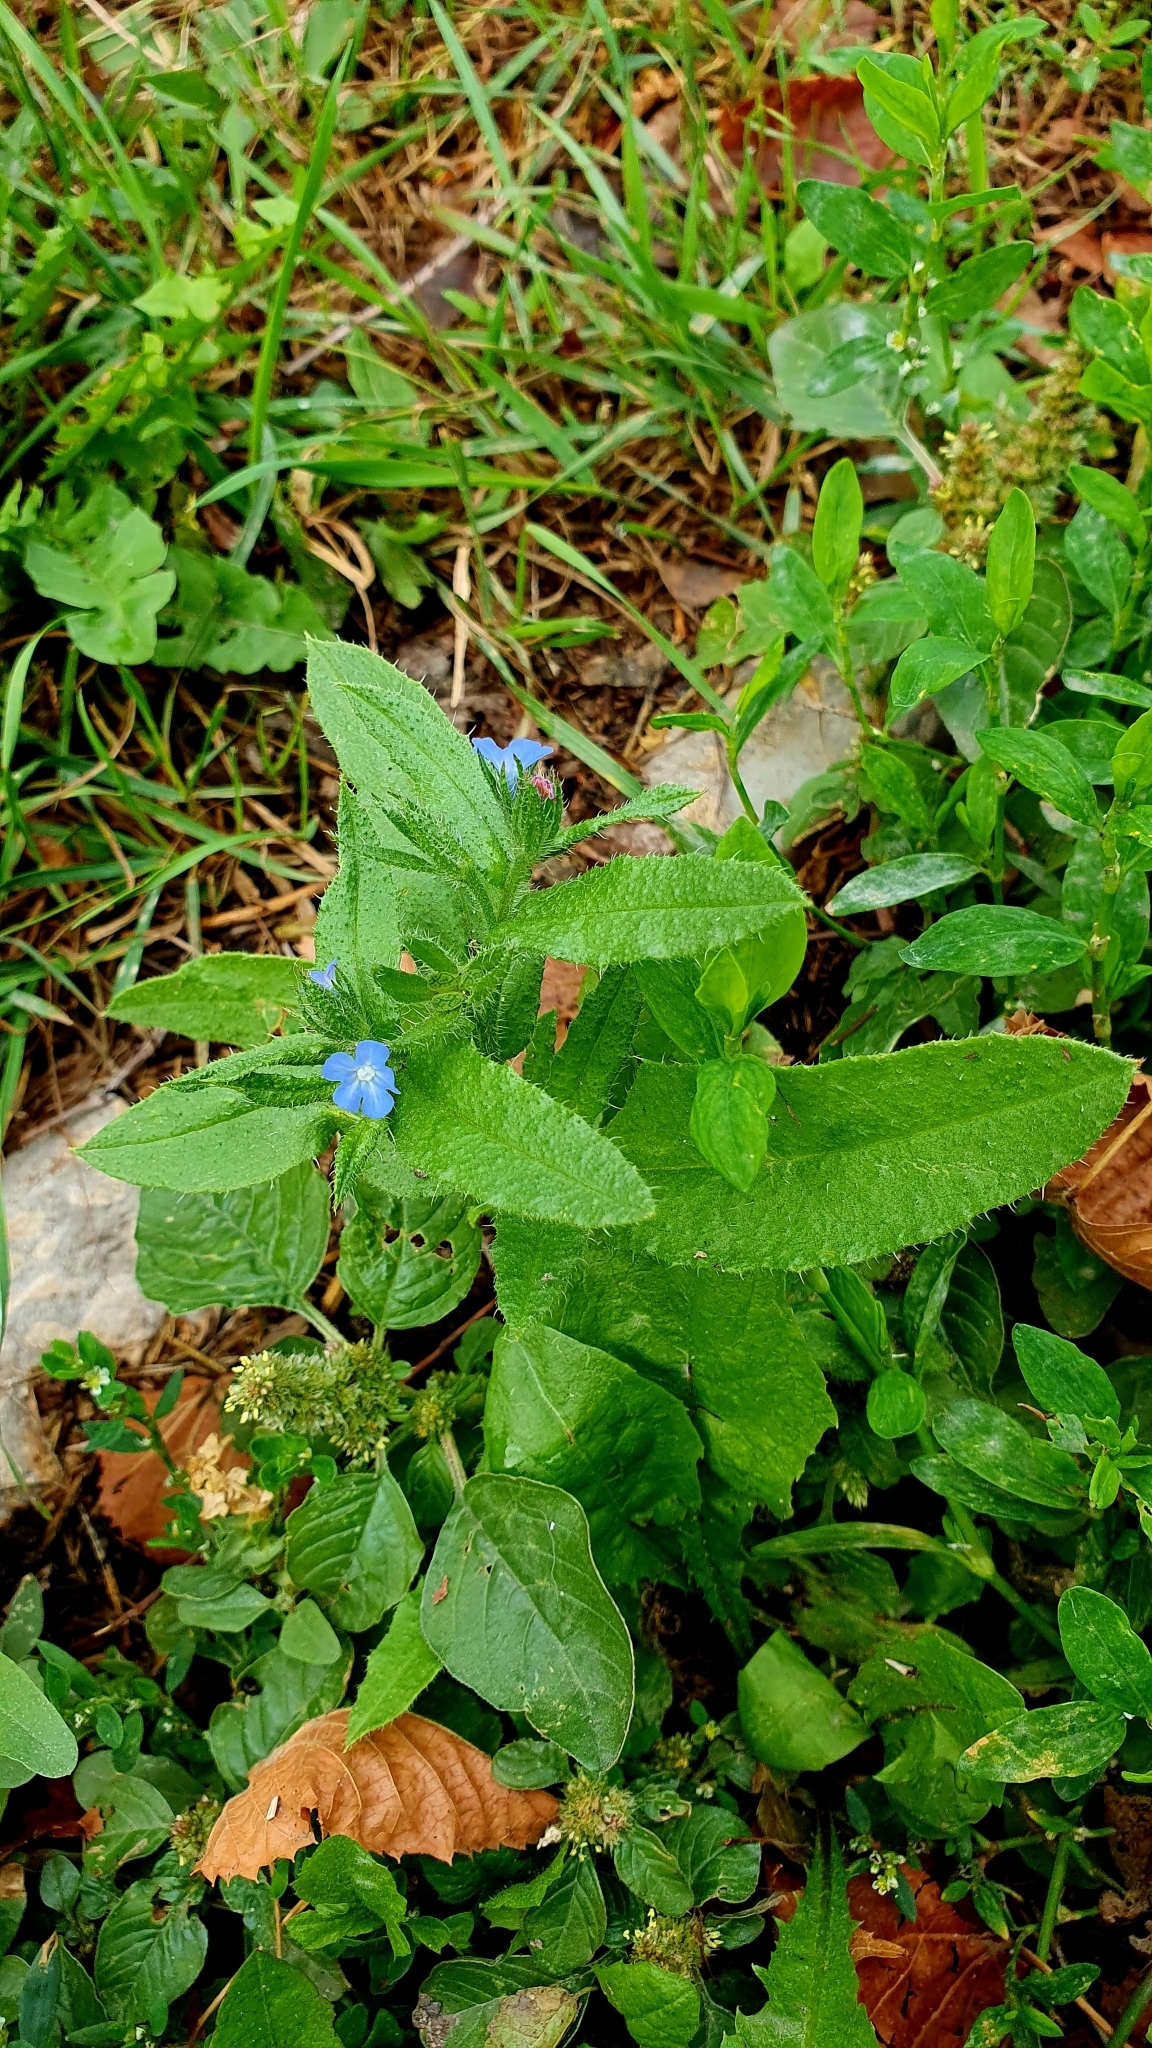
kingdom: Plantae
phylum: Tracheophyta
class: Magnoliopsida
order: Boraginales
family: Boraginaceae
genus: Lycopsis
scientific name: Lycopsis arvensis
